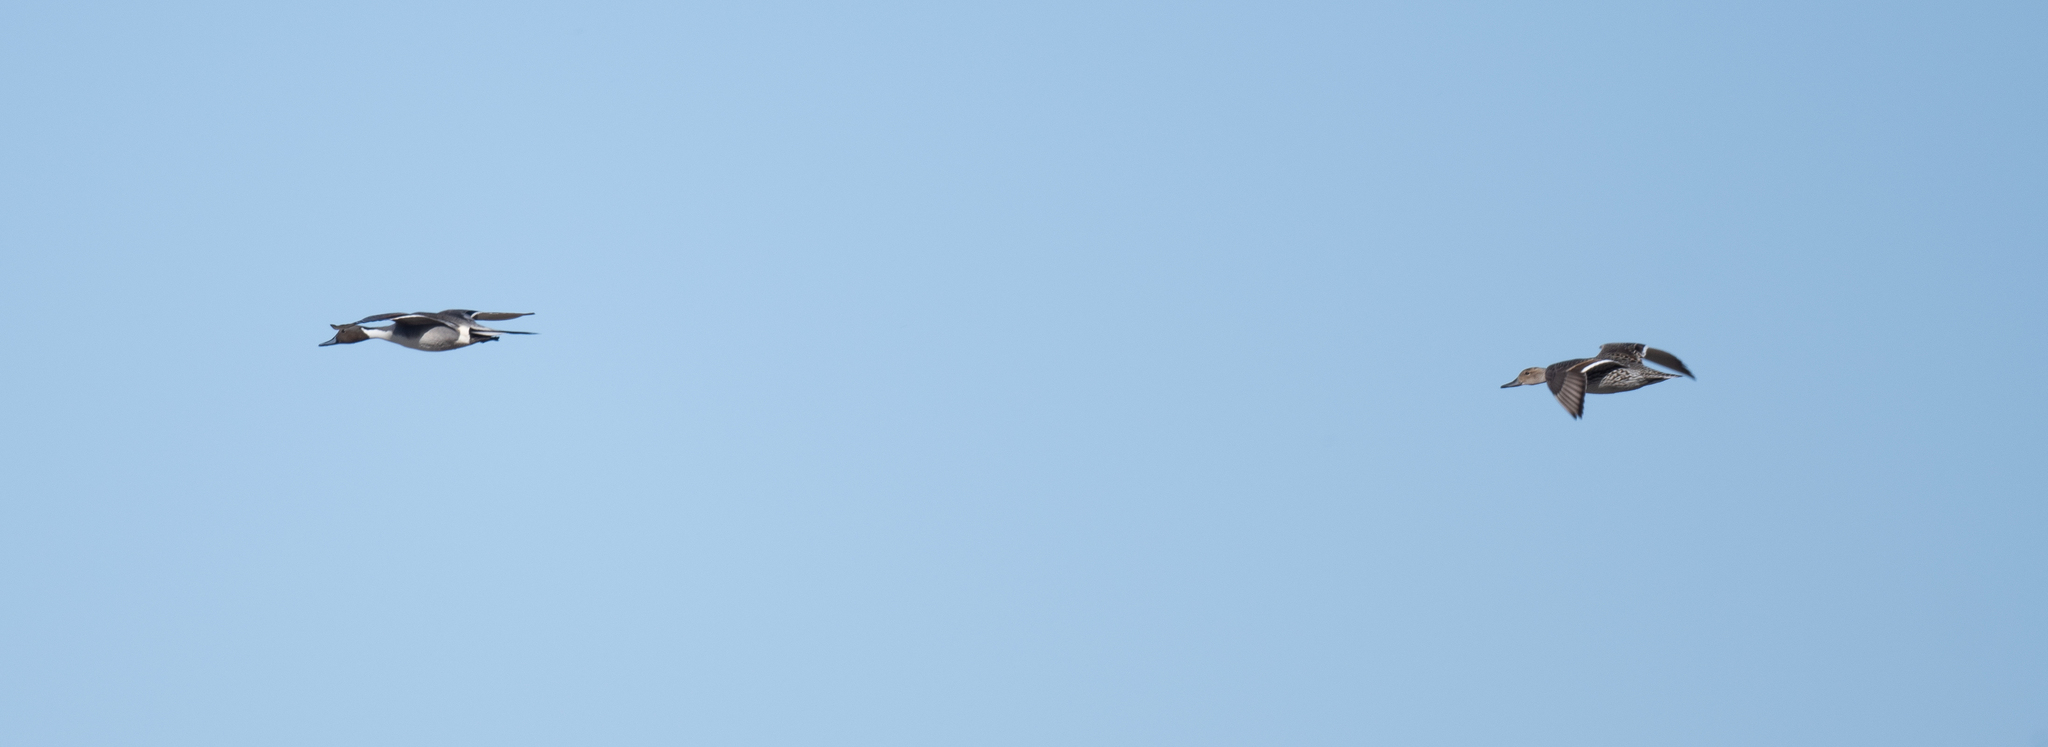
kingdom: Animalia
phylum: Chordata
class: Aves
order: Anseriformes
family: Anatidae
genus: Anas
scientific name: Anas acuta
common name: Northern pintail
